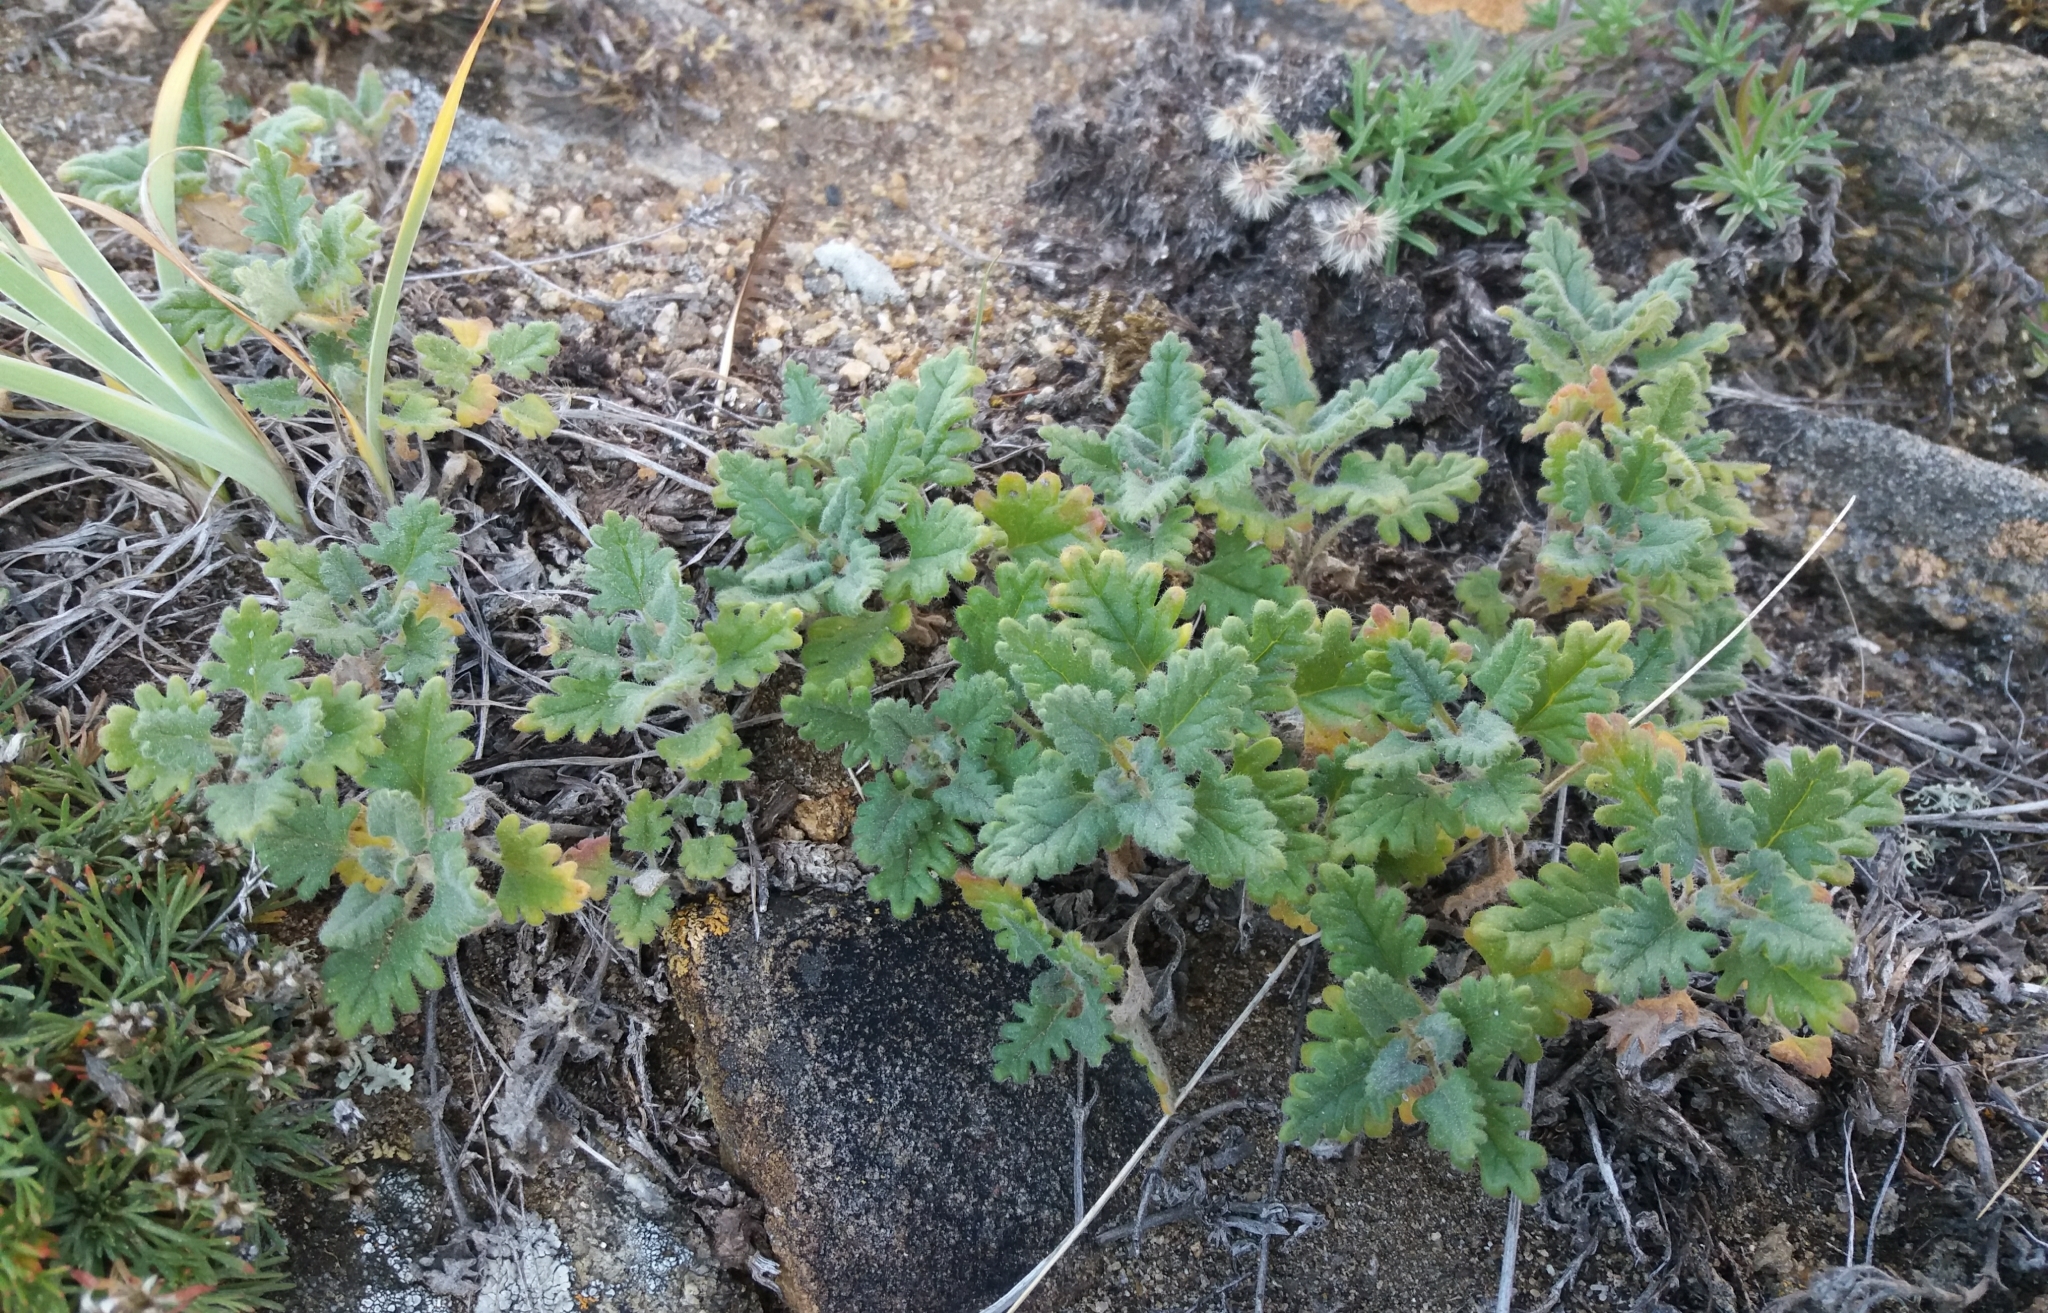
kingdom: Plantae
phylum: Tracheophyta
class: Magnoliopsida
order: Lamiales
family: Lamiaceae
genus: Dracocephalum
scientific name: Dracocephalum pinnatum
